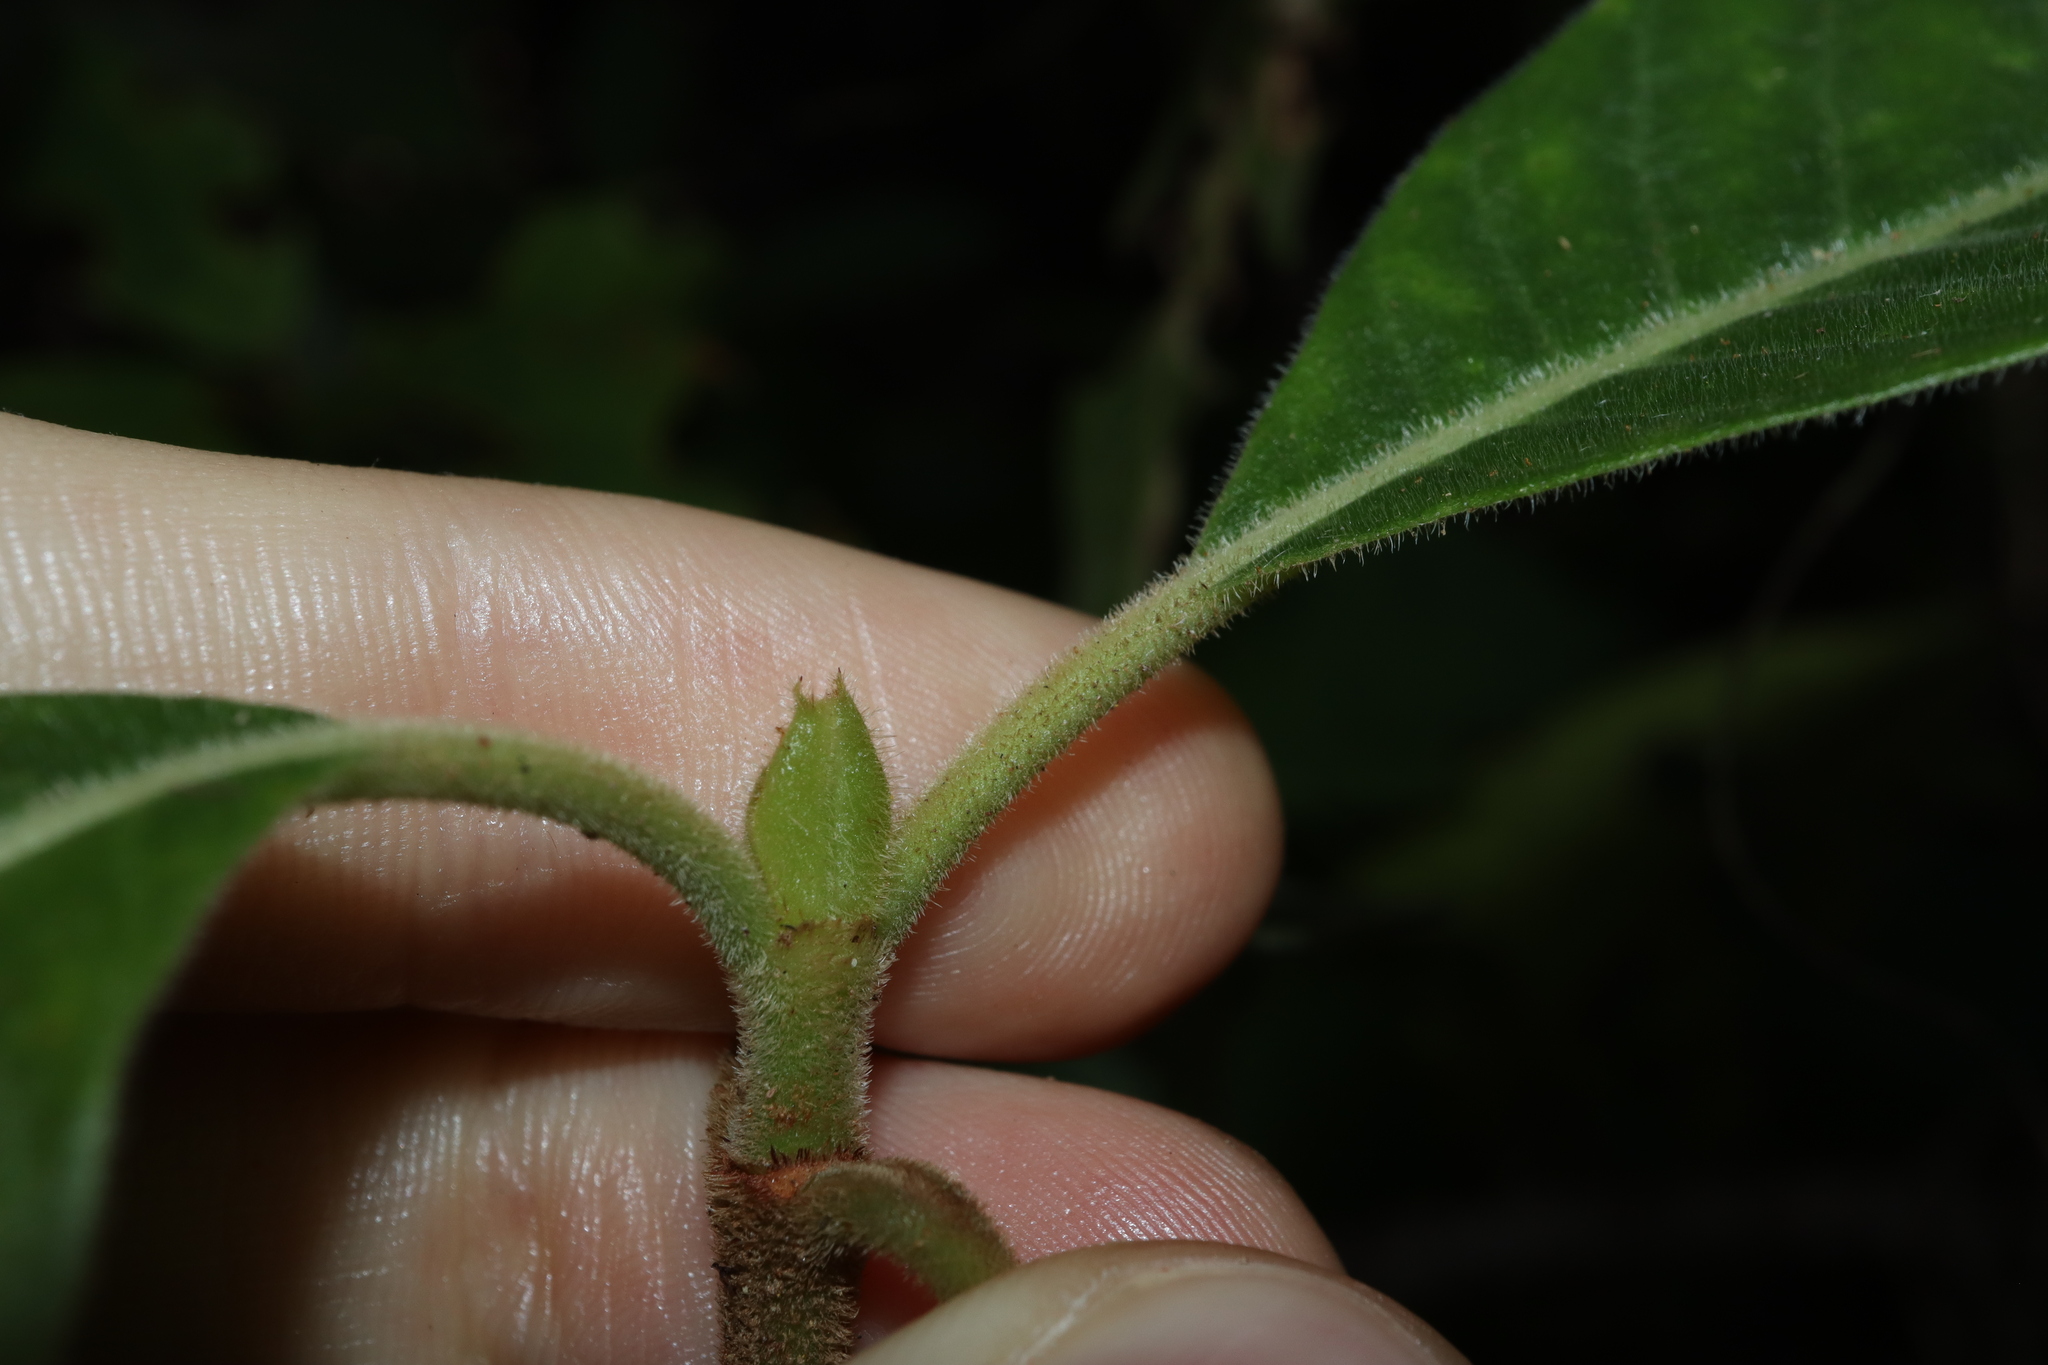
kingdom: Plantae
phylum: Tracheophyta
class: Magnoliopsida
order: Gentianales
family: Rubiaceae
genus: Psychotria
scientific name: Psychotria loniceroides
